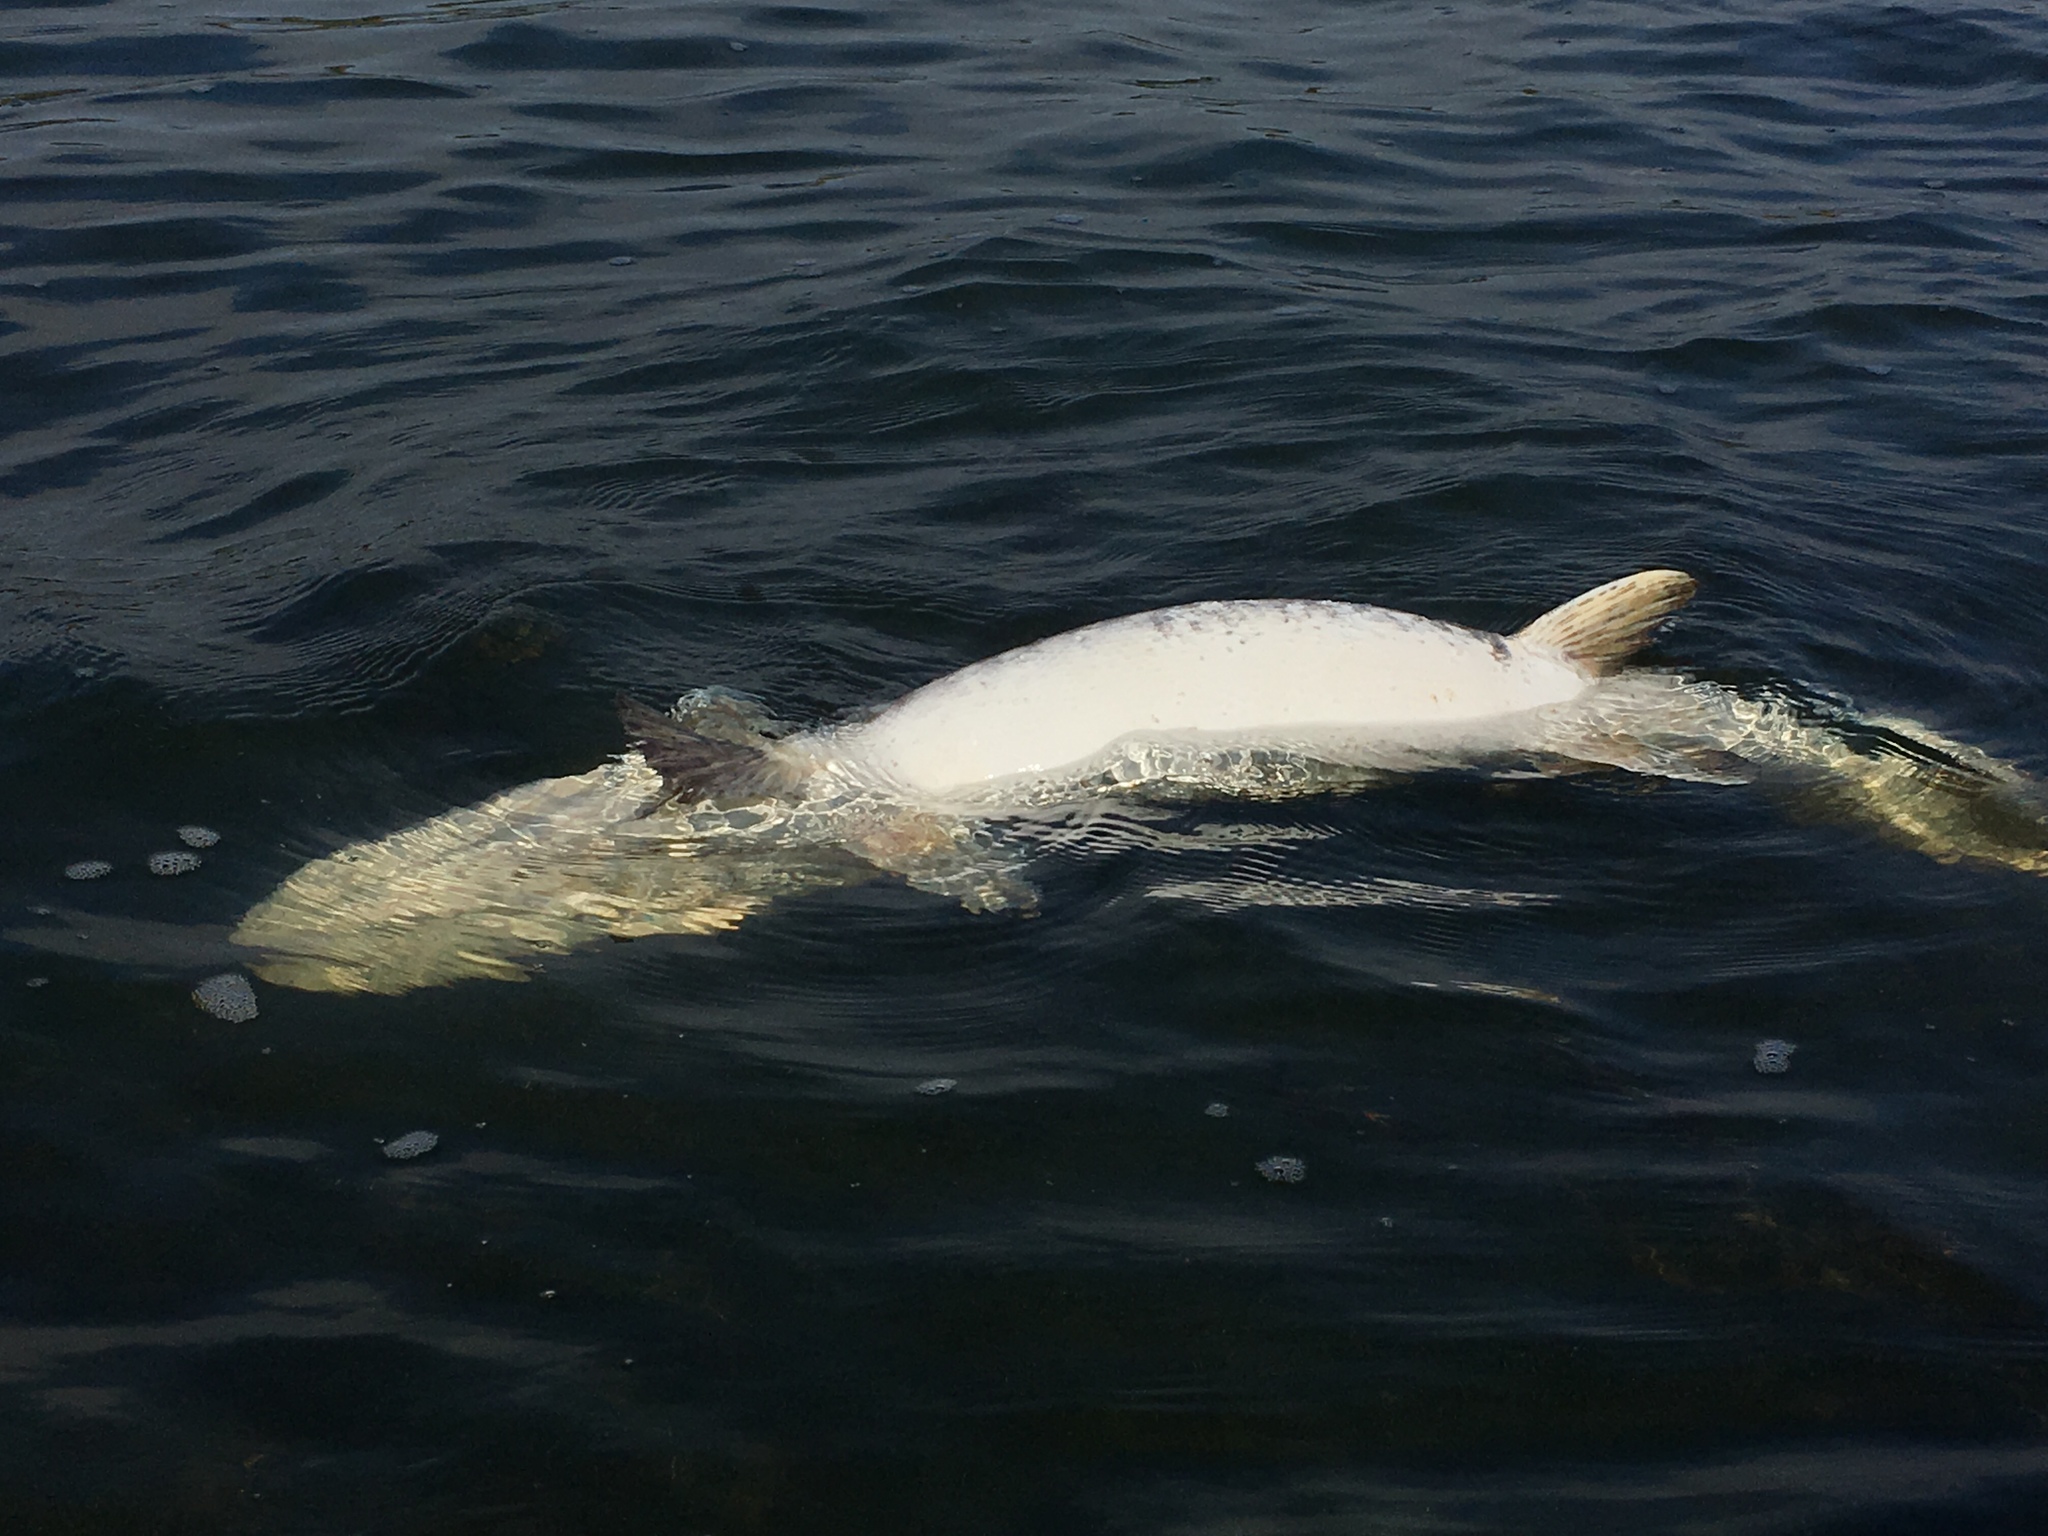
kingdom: Animalia
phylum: Chordata
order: Esociformes
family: Esocidae
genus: Esox
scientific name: Esox masquinongy
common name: Muskellunge
